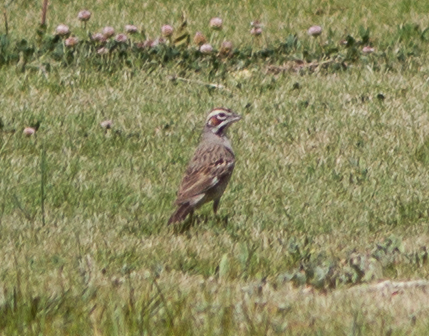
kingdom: Animalia
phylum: Chordata
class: Aves
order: Passeriformes
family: Passerellidae
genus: Chondestes
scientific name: Chondestes grammacus
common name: Lark sparrow
